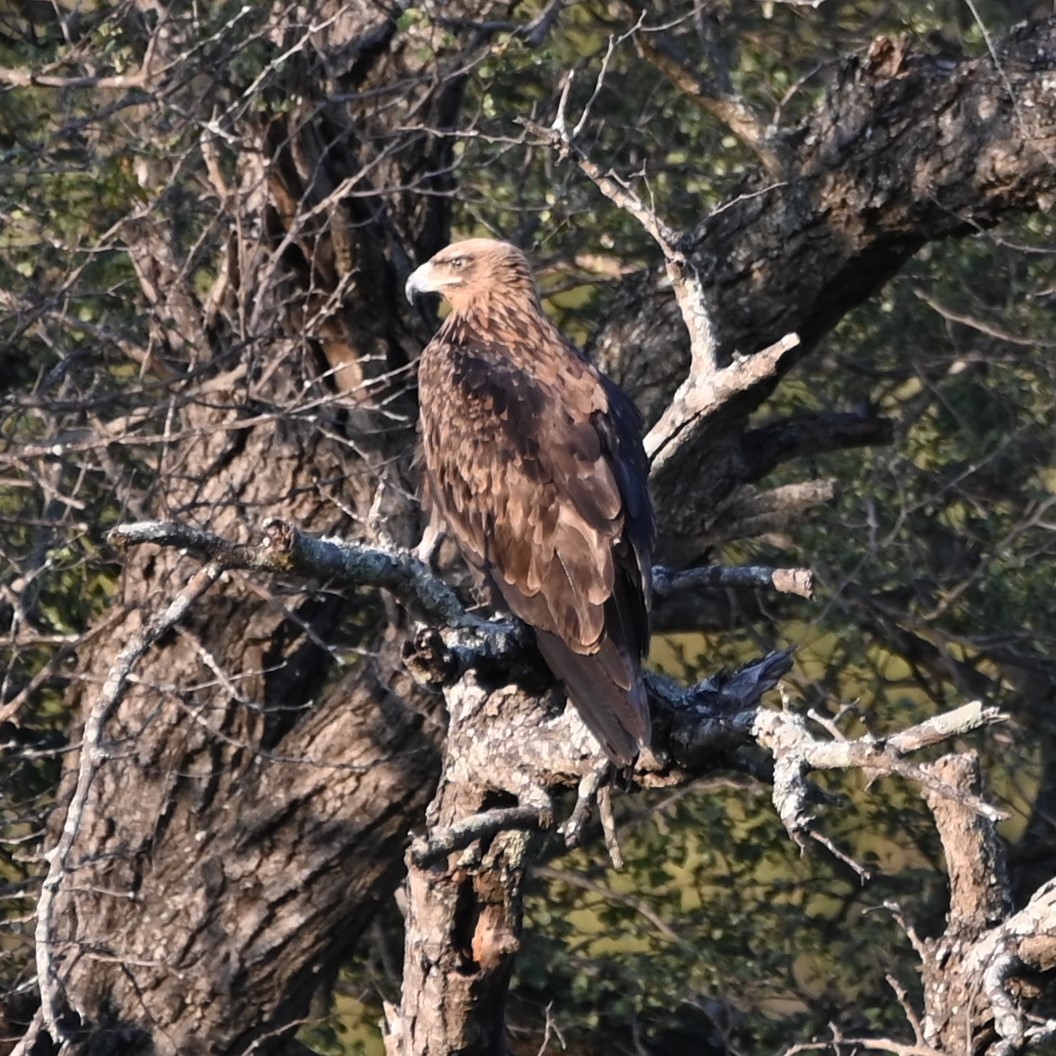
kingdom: Animalia
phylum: Chordata
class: Aves
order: Accipitriformes
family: Accipitridae
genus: Aquila
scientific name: Aquila rapax
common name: Tawny eagle
